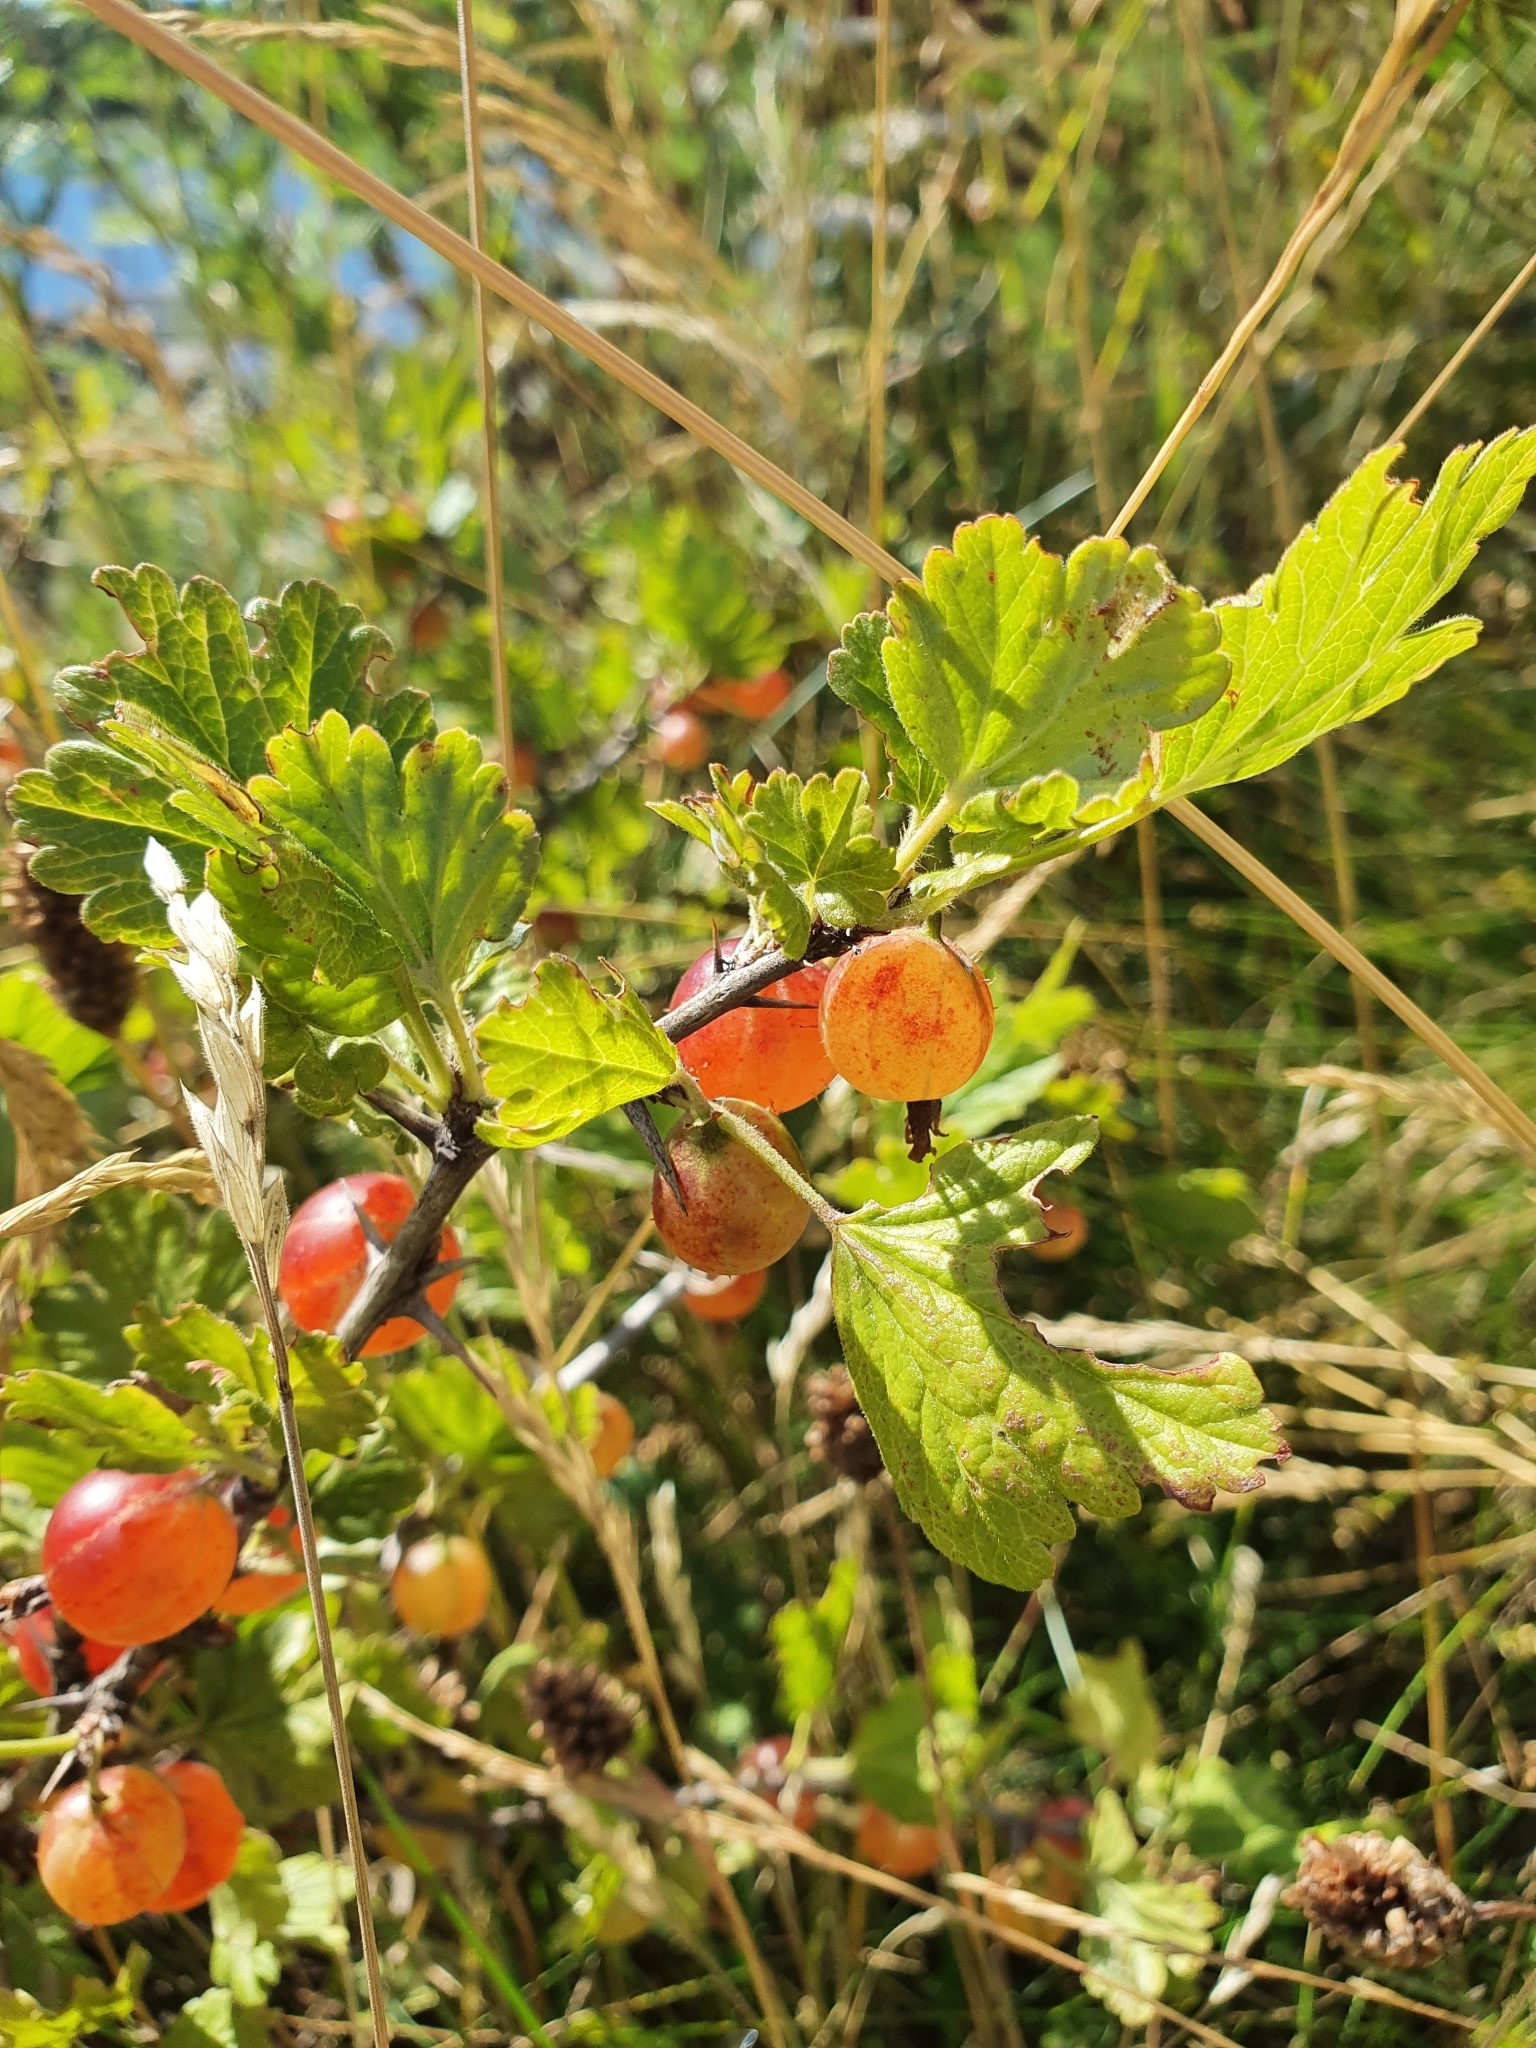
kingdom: Plantae
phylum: Tracheophyta
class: Magnoliopsida
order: Saxifragales
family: Grossulariaceae
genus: Ribes
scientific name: Ribes uva-crispa
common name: Gooseberry
